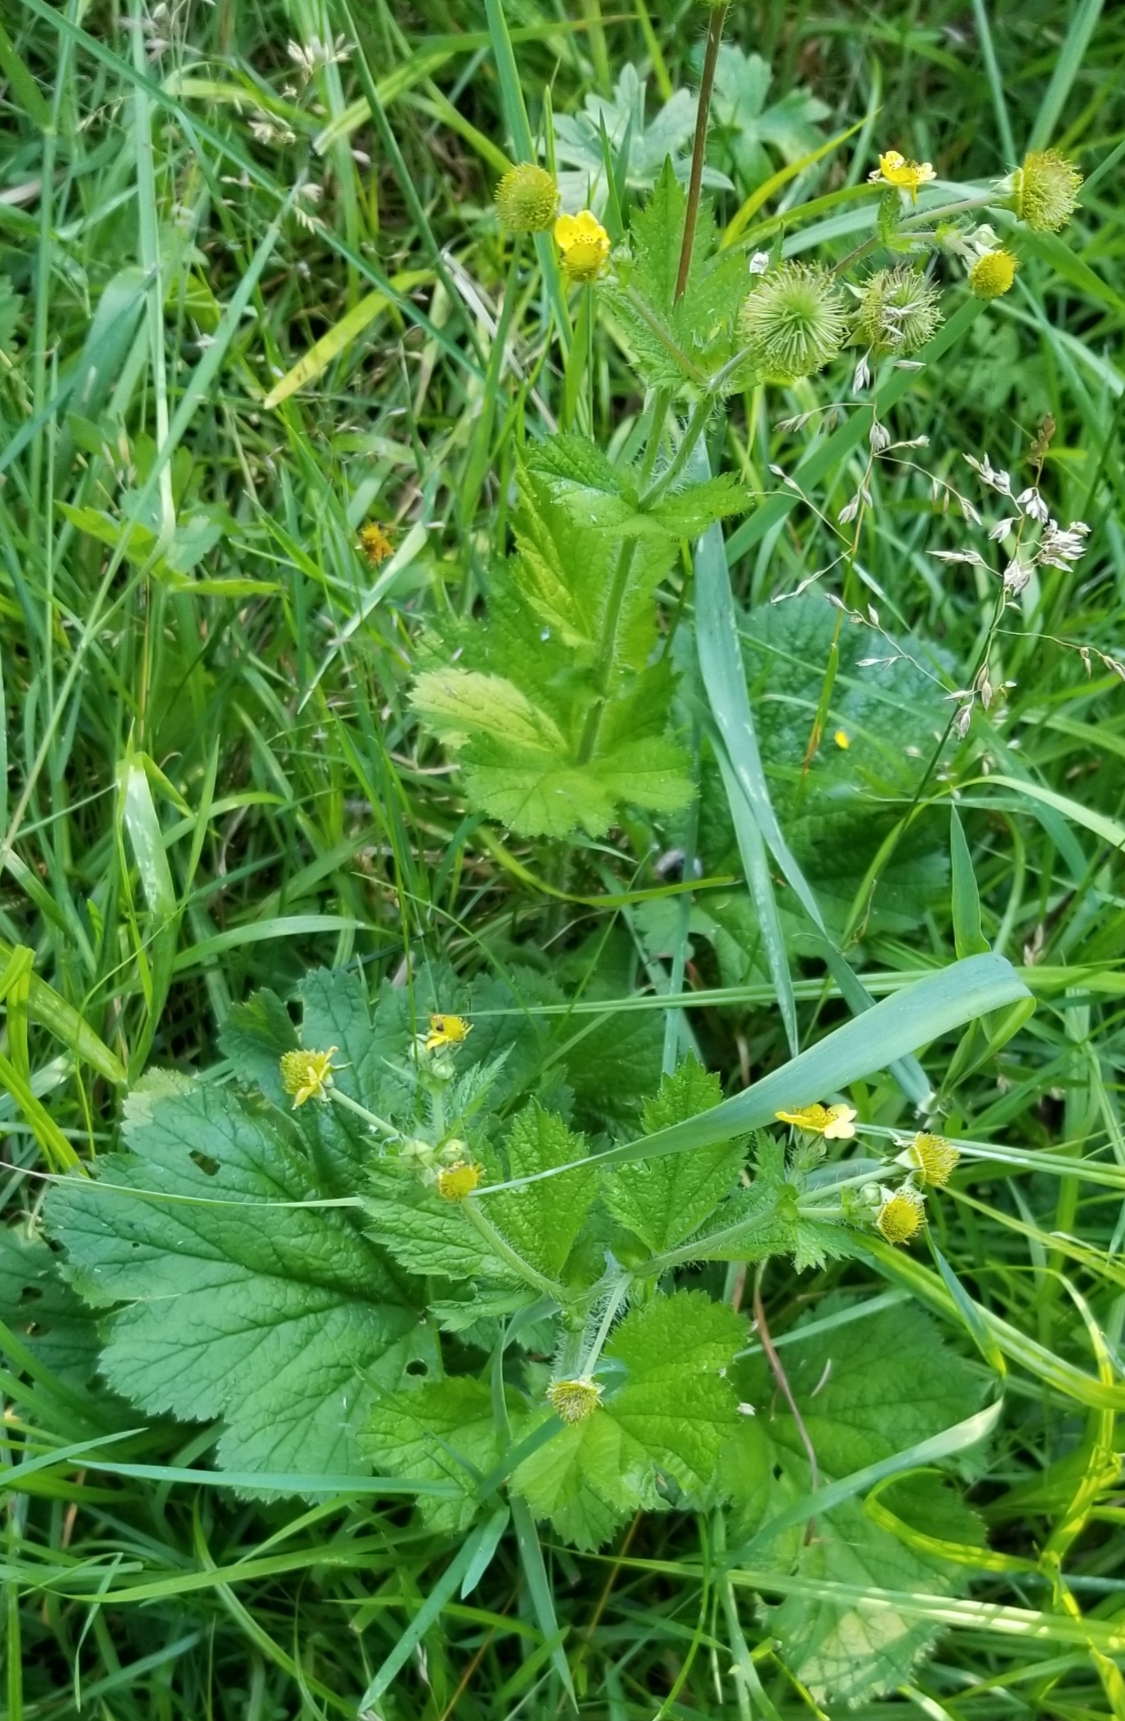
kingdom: Plantae
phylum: Tracheophyta
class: Magnoliopsida
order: Rosales
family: Rosaceae
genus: Geum
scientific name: Geum macrophyllum
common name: Large-leaved avens
